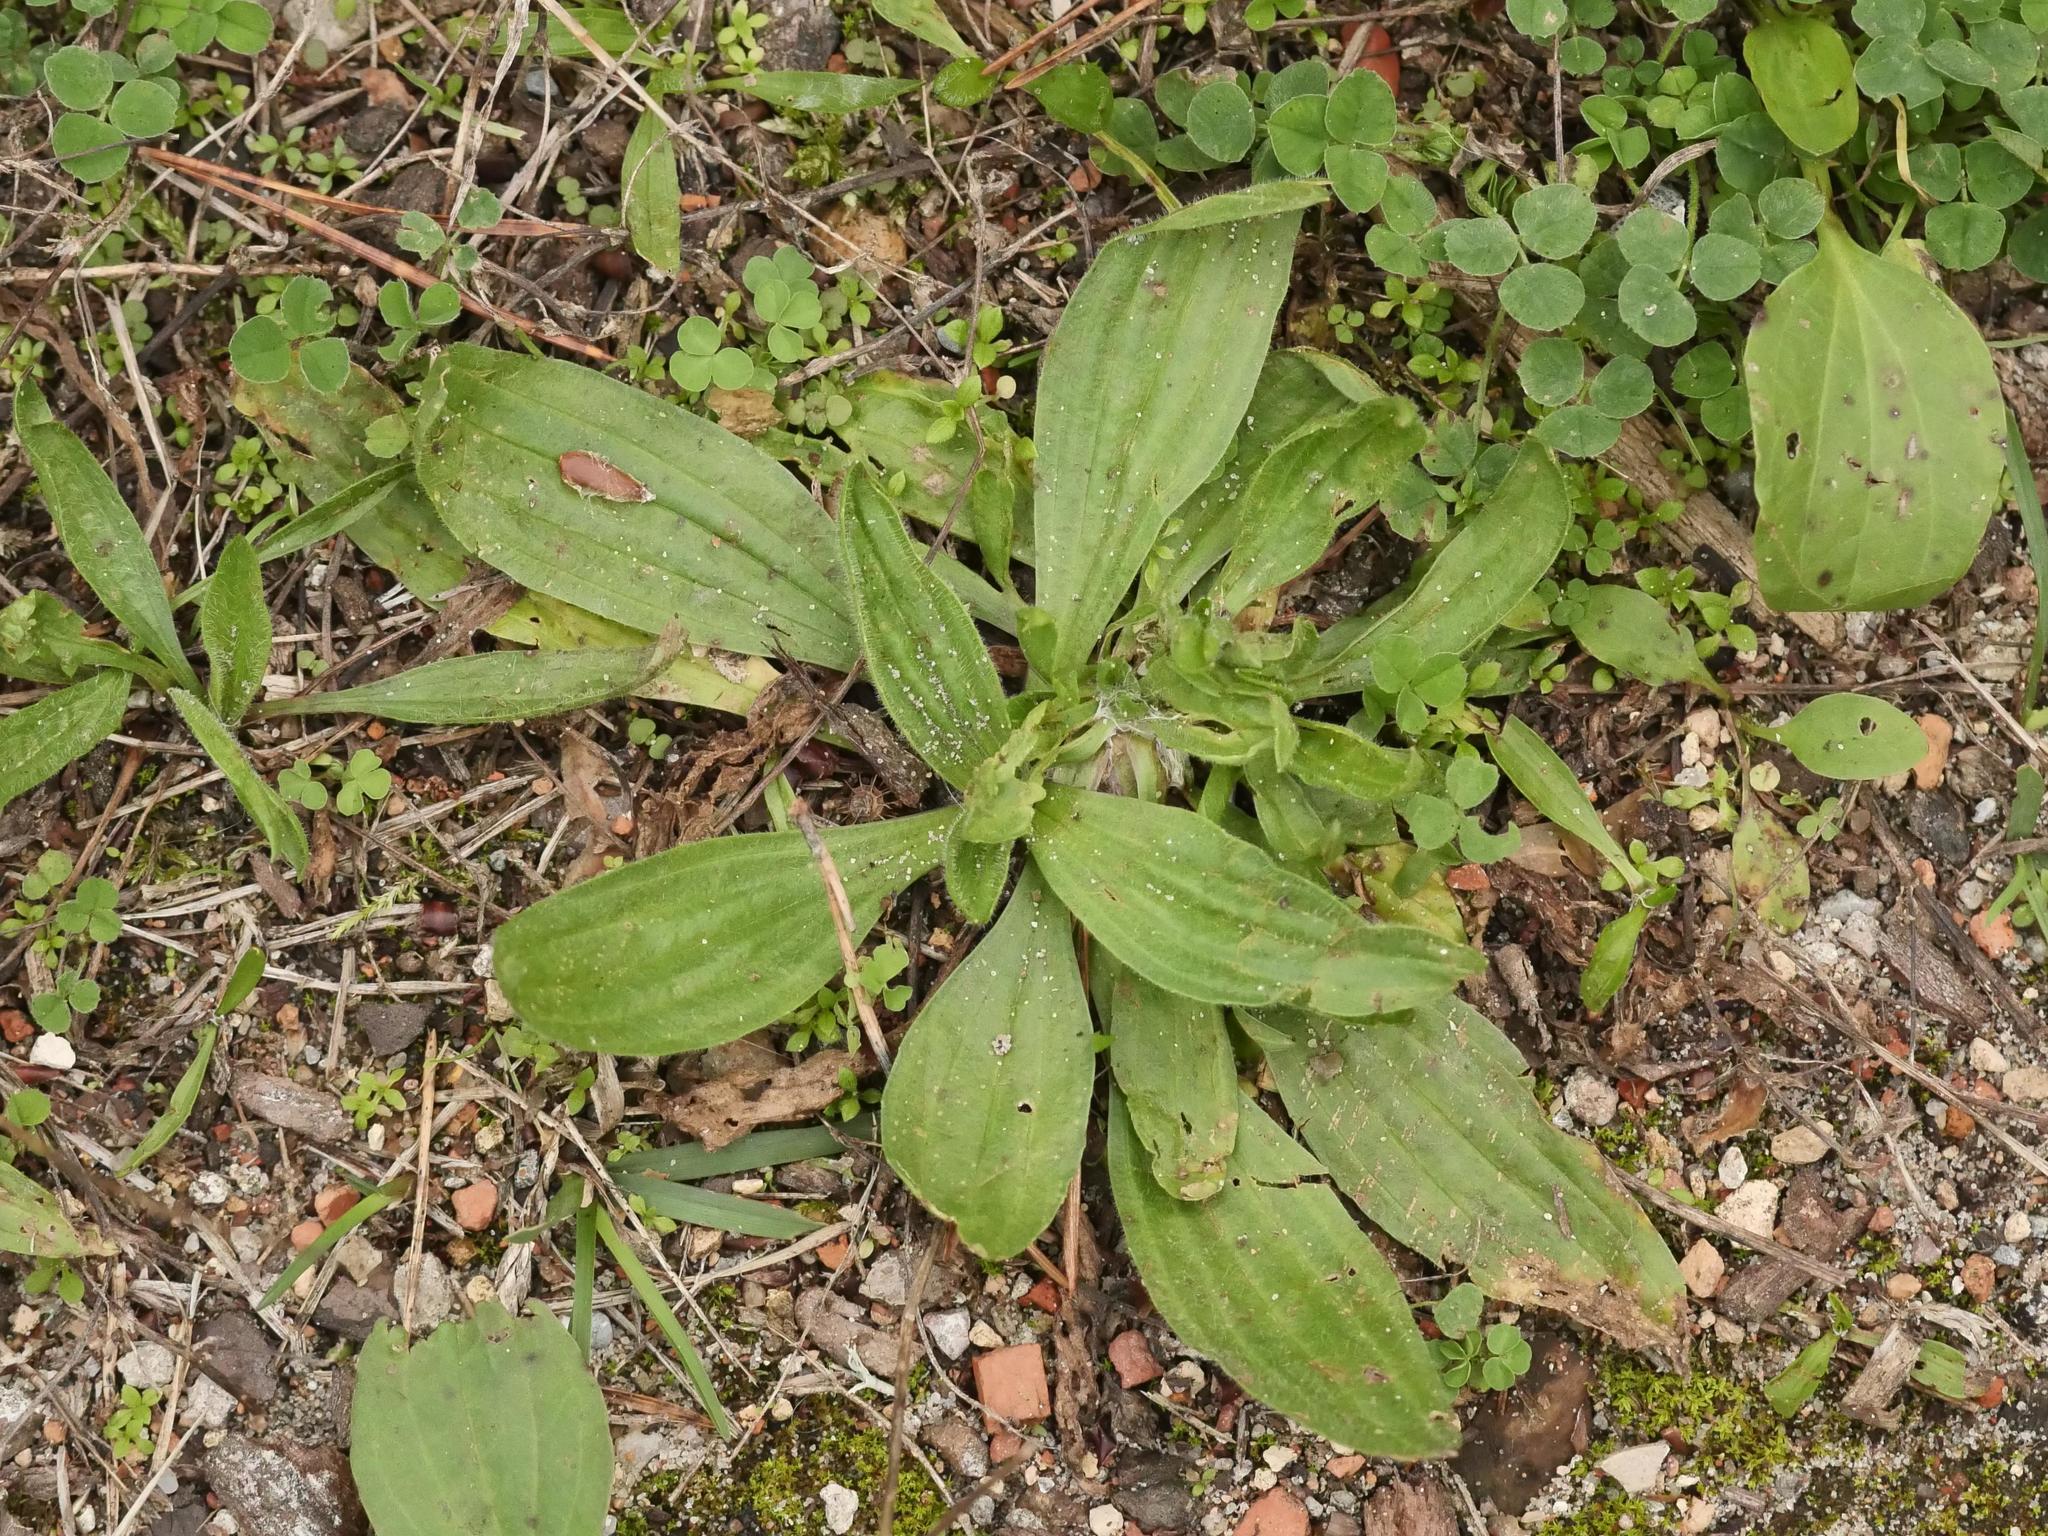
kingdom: Plantae
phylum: Tracheophyta
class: Magnoliopsida
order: Lamiales
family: Plantaginaceae
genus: Plantago
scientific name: Plantago lanceolata
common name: Ribwort plantain
